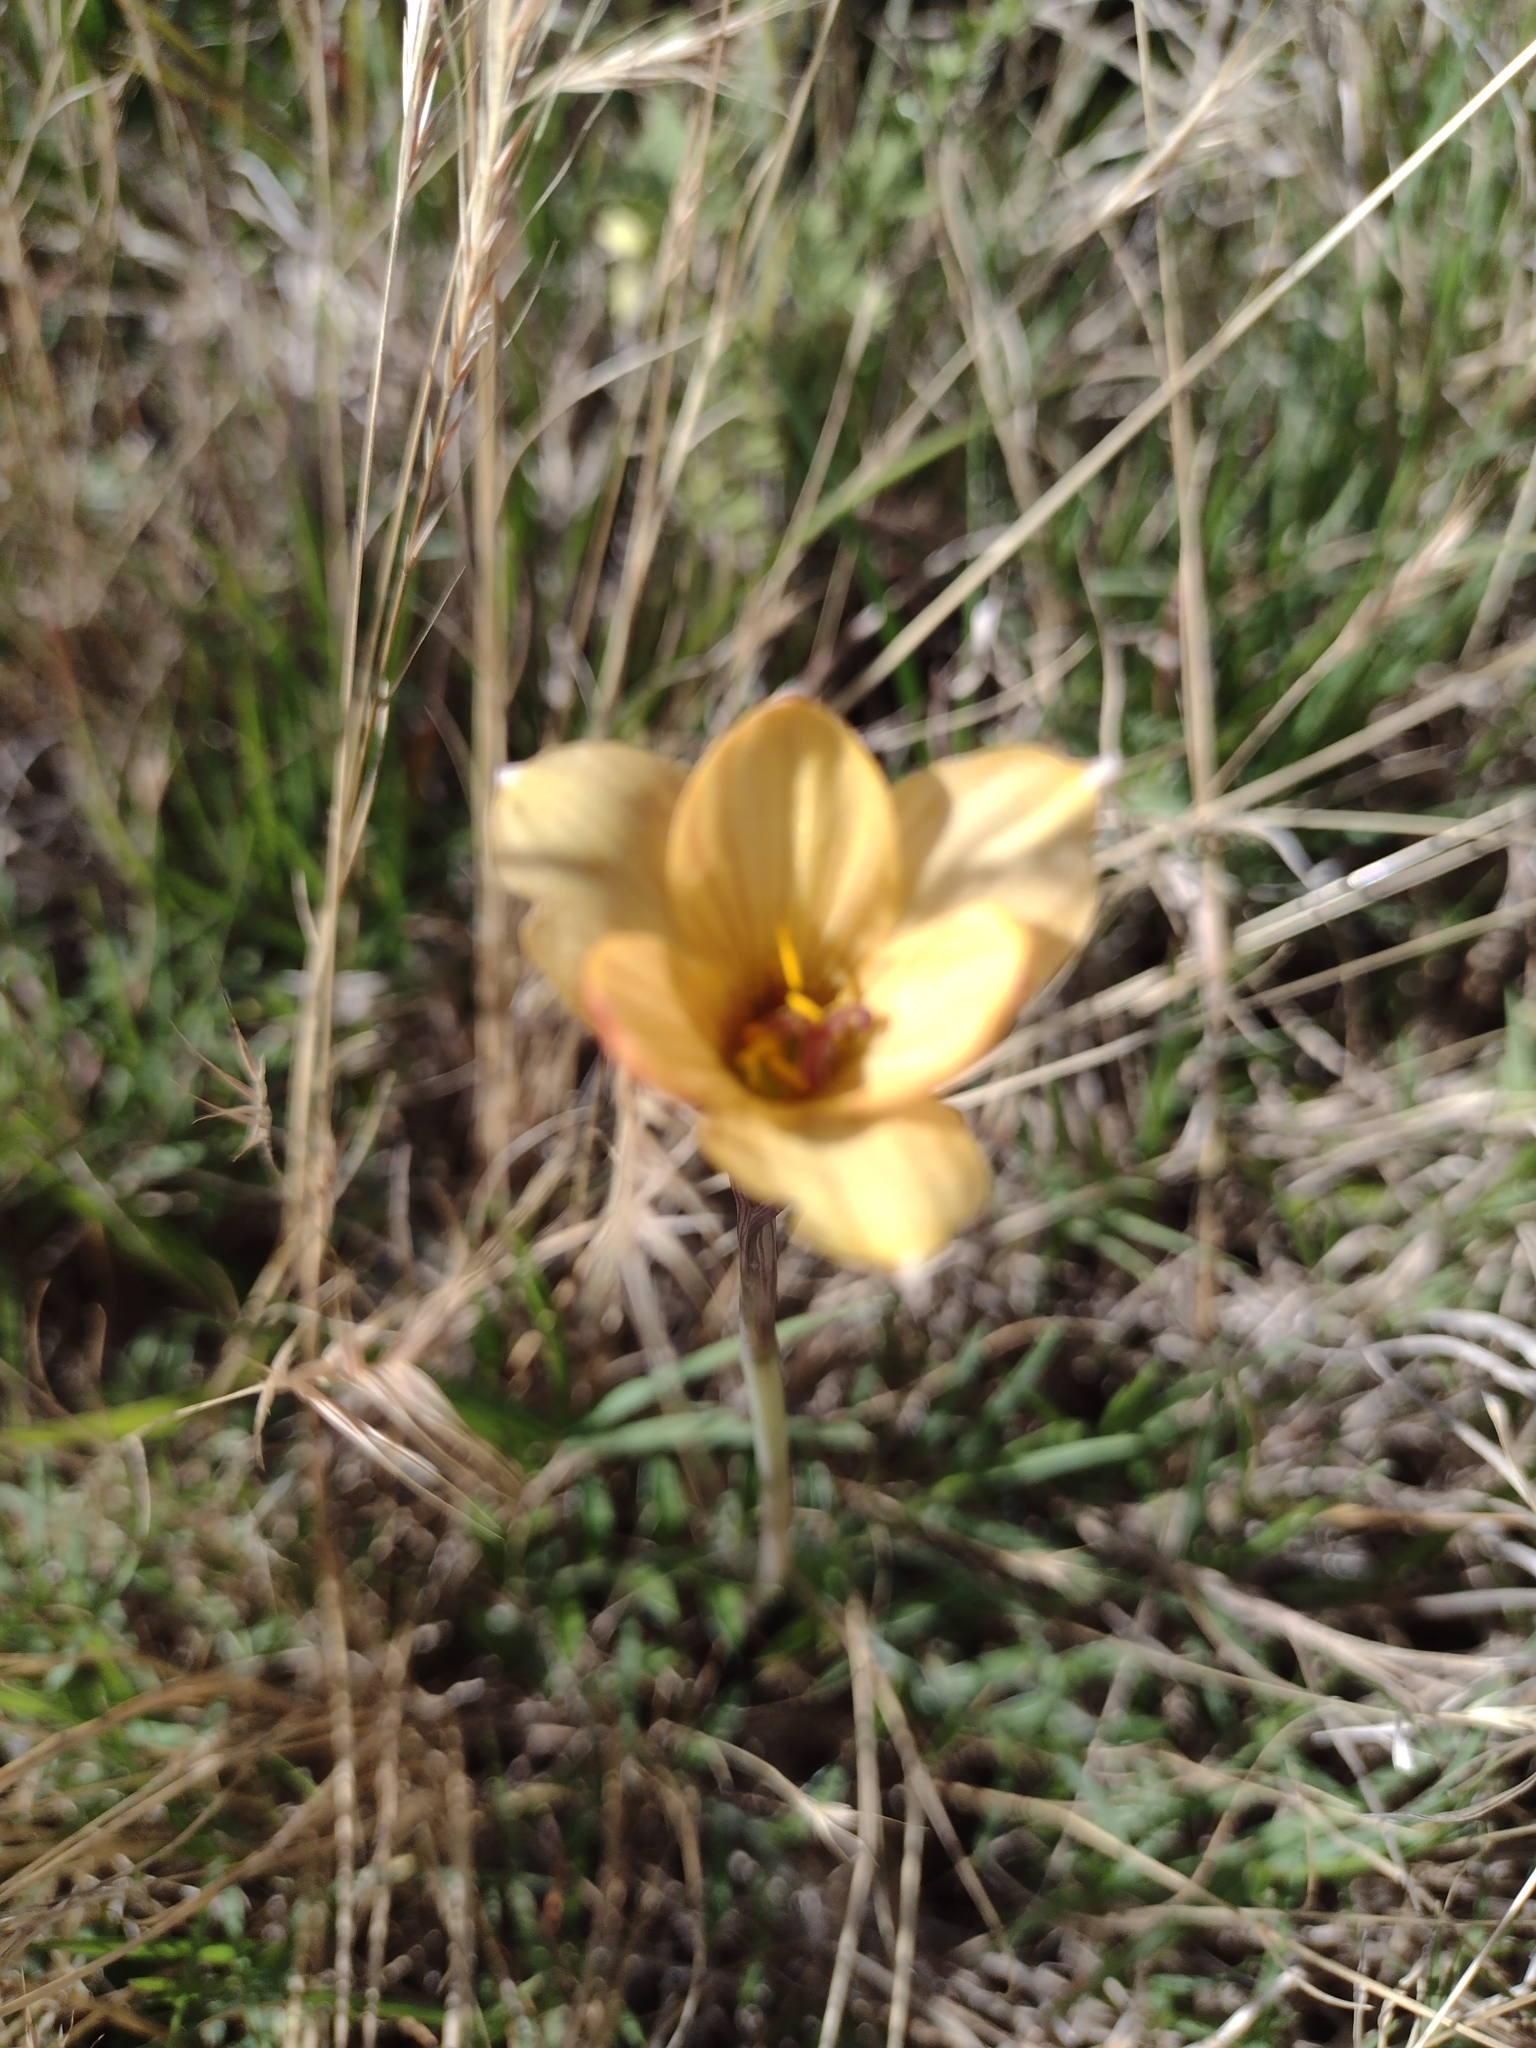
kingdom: Plantae
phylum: Tracheophyta
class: Liliopsida
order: Asparagales
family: Amaryllidaceae
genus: Zephyranthes
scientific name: Zephyranthes tubispatha
